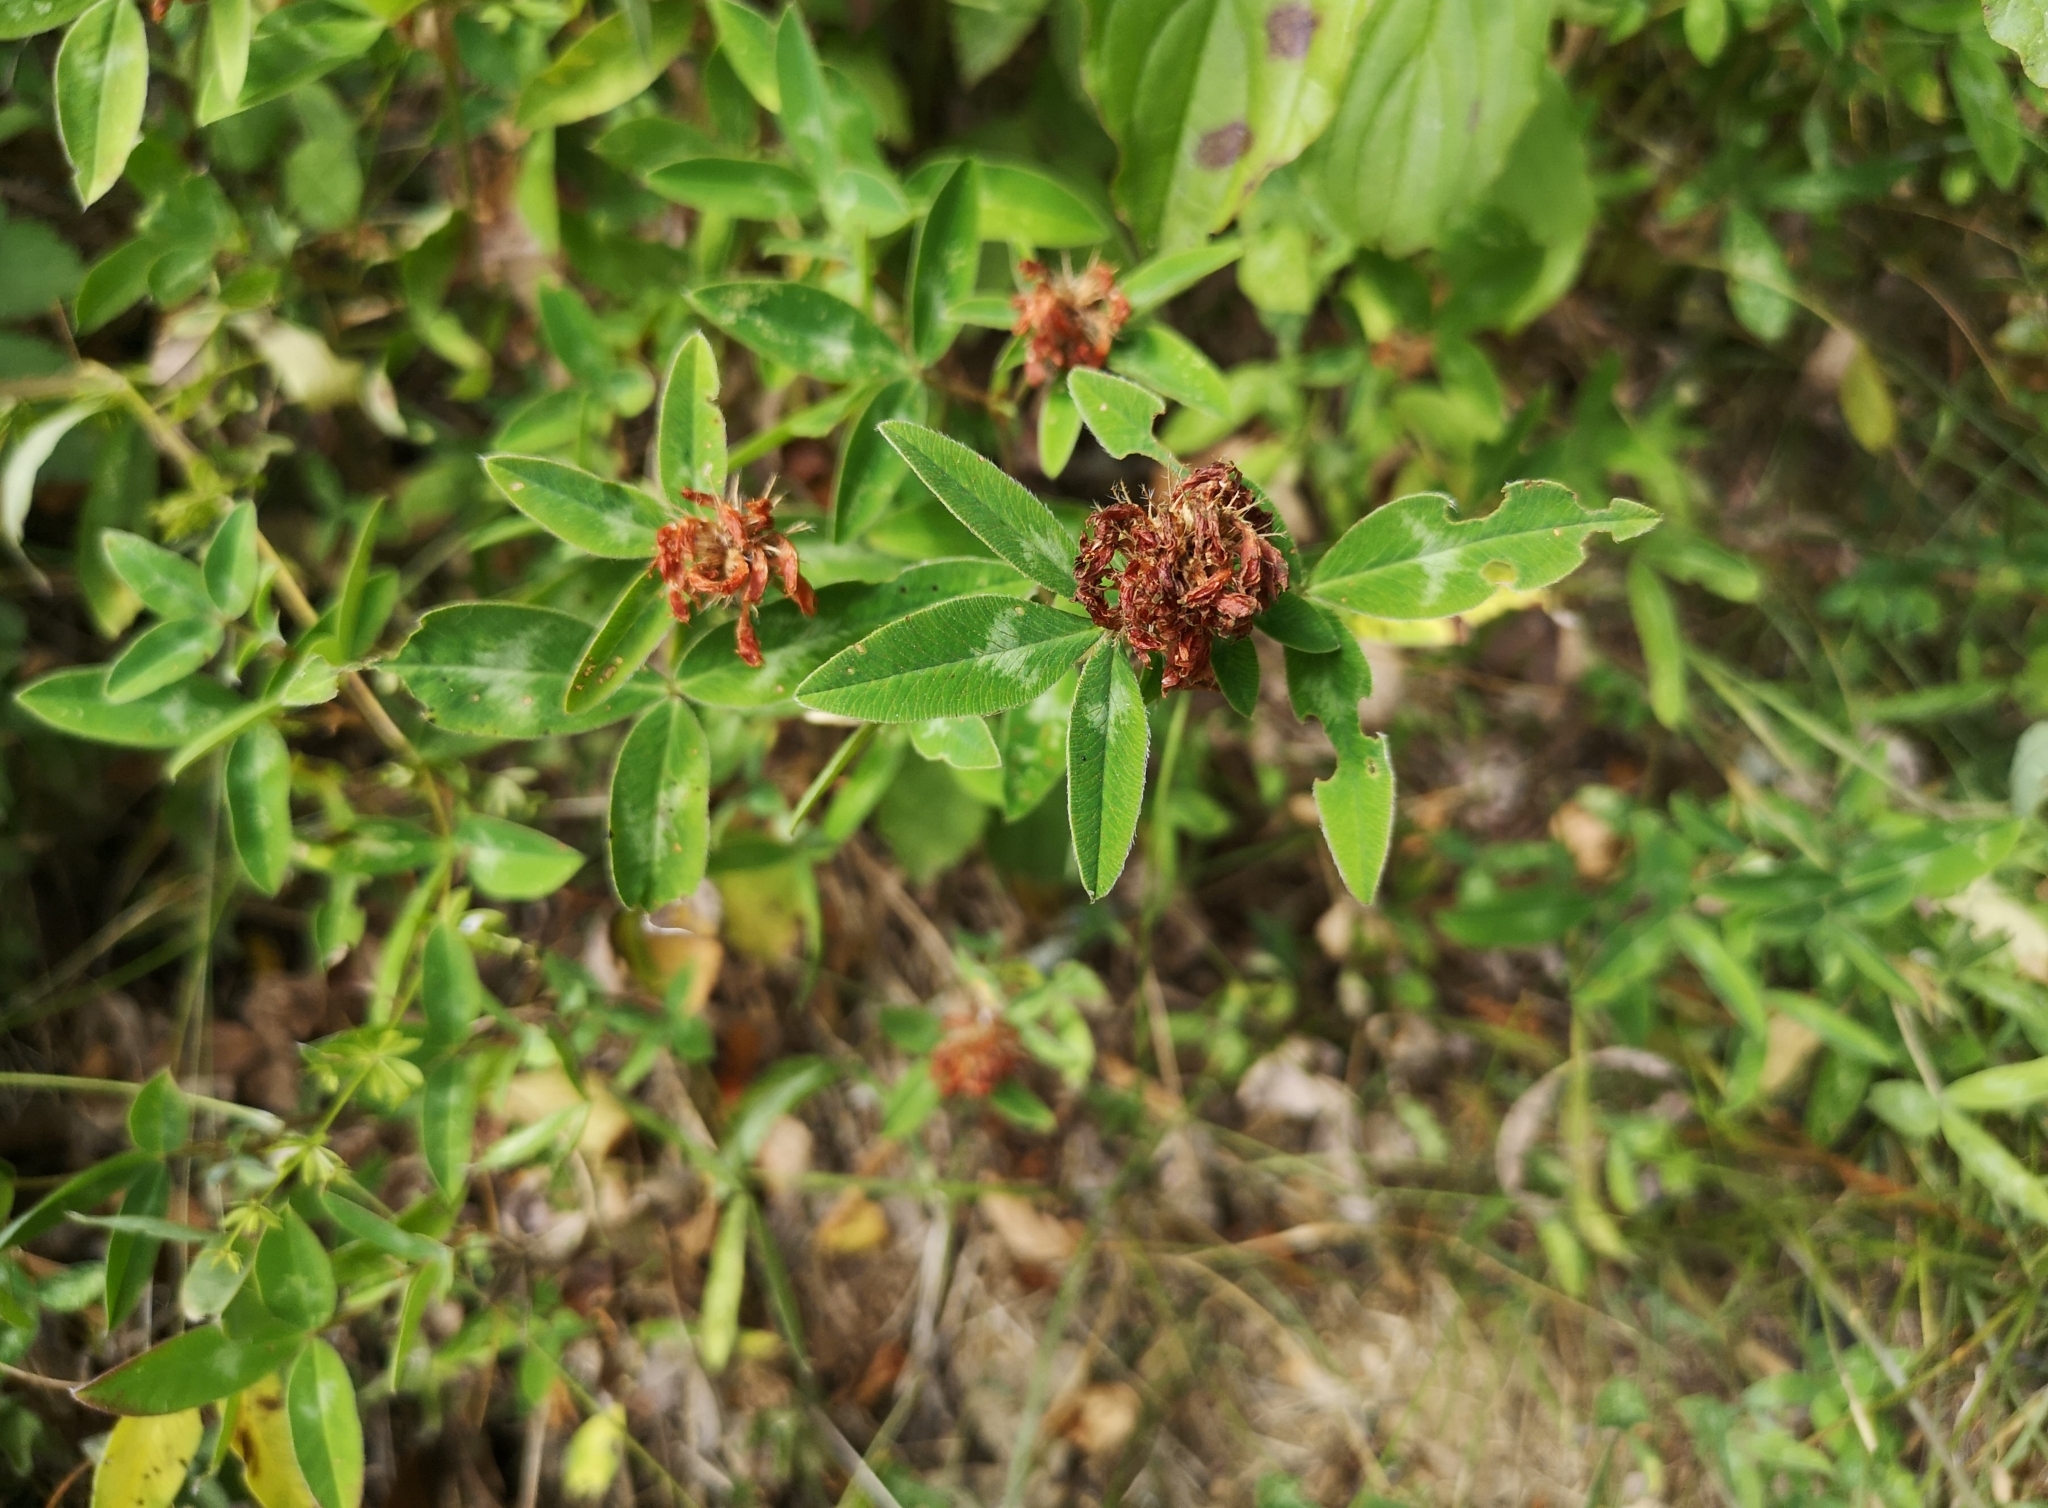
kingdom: Plantae
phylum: Tracheophyta
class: Magnoliopsida
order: Fabales
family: Fabaceae
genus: Trifolium
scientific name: Trifolium medium
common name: Zigzag clover
